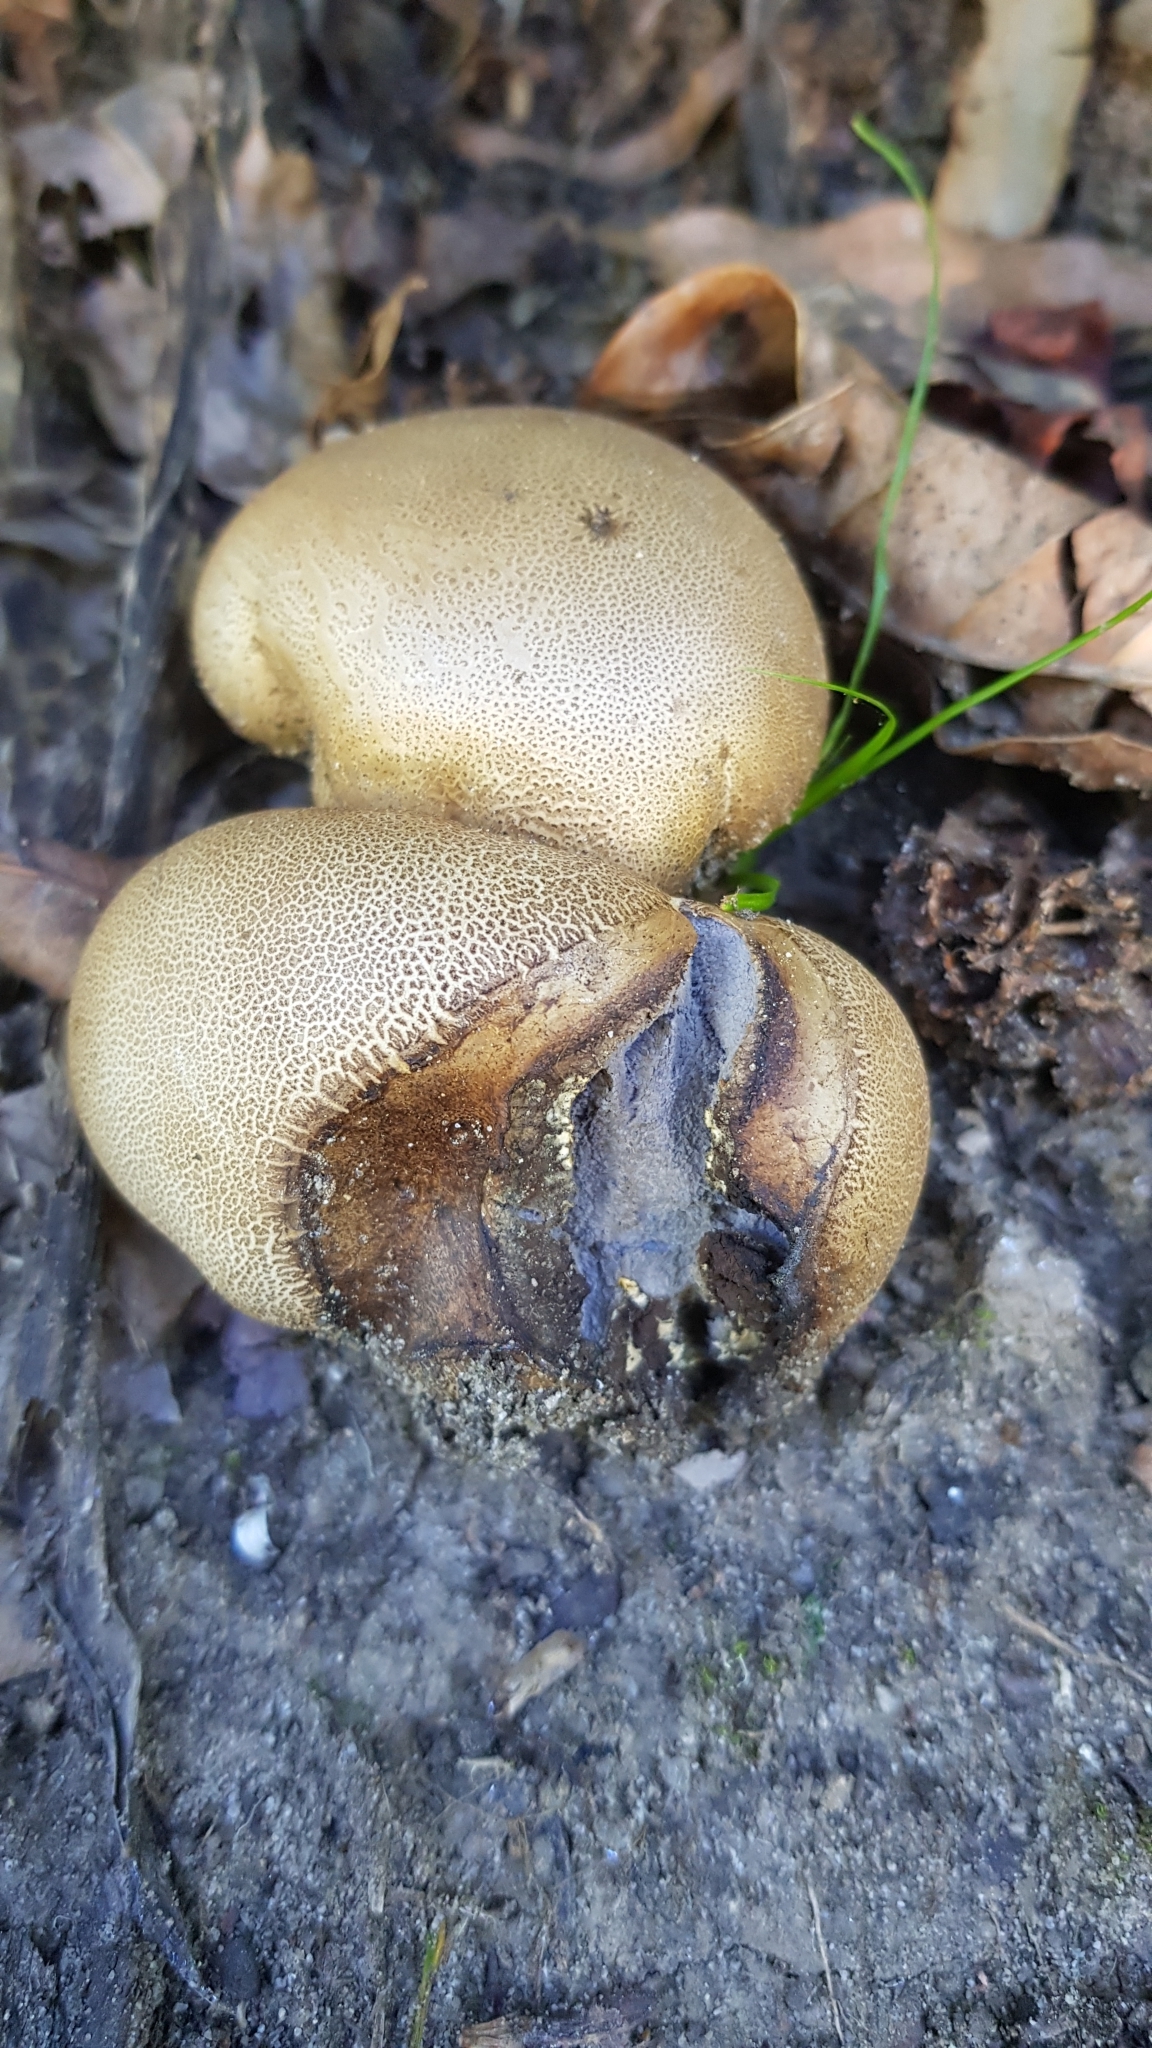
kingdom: Fungi
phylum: Basidiomycota
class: Agaricomycetes
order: Boletales
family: Sclerodermataceae
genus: Scleroderma
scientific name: Scleroderma cepa
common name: Onion earthball
